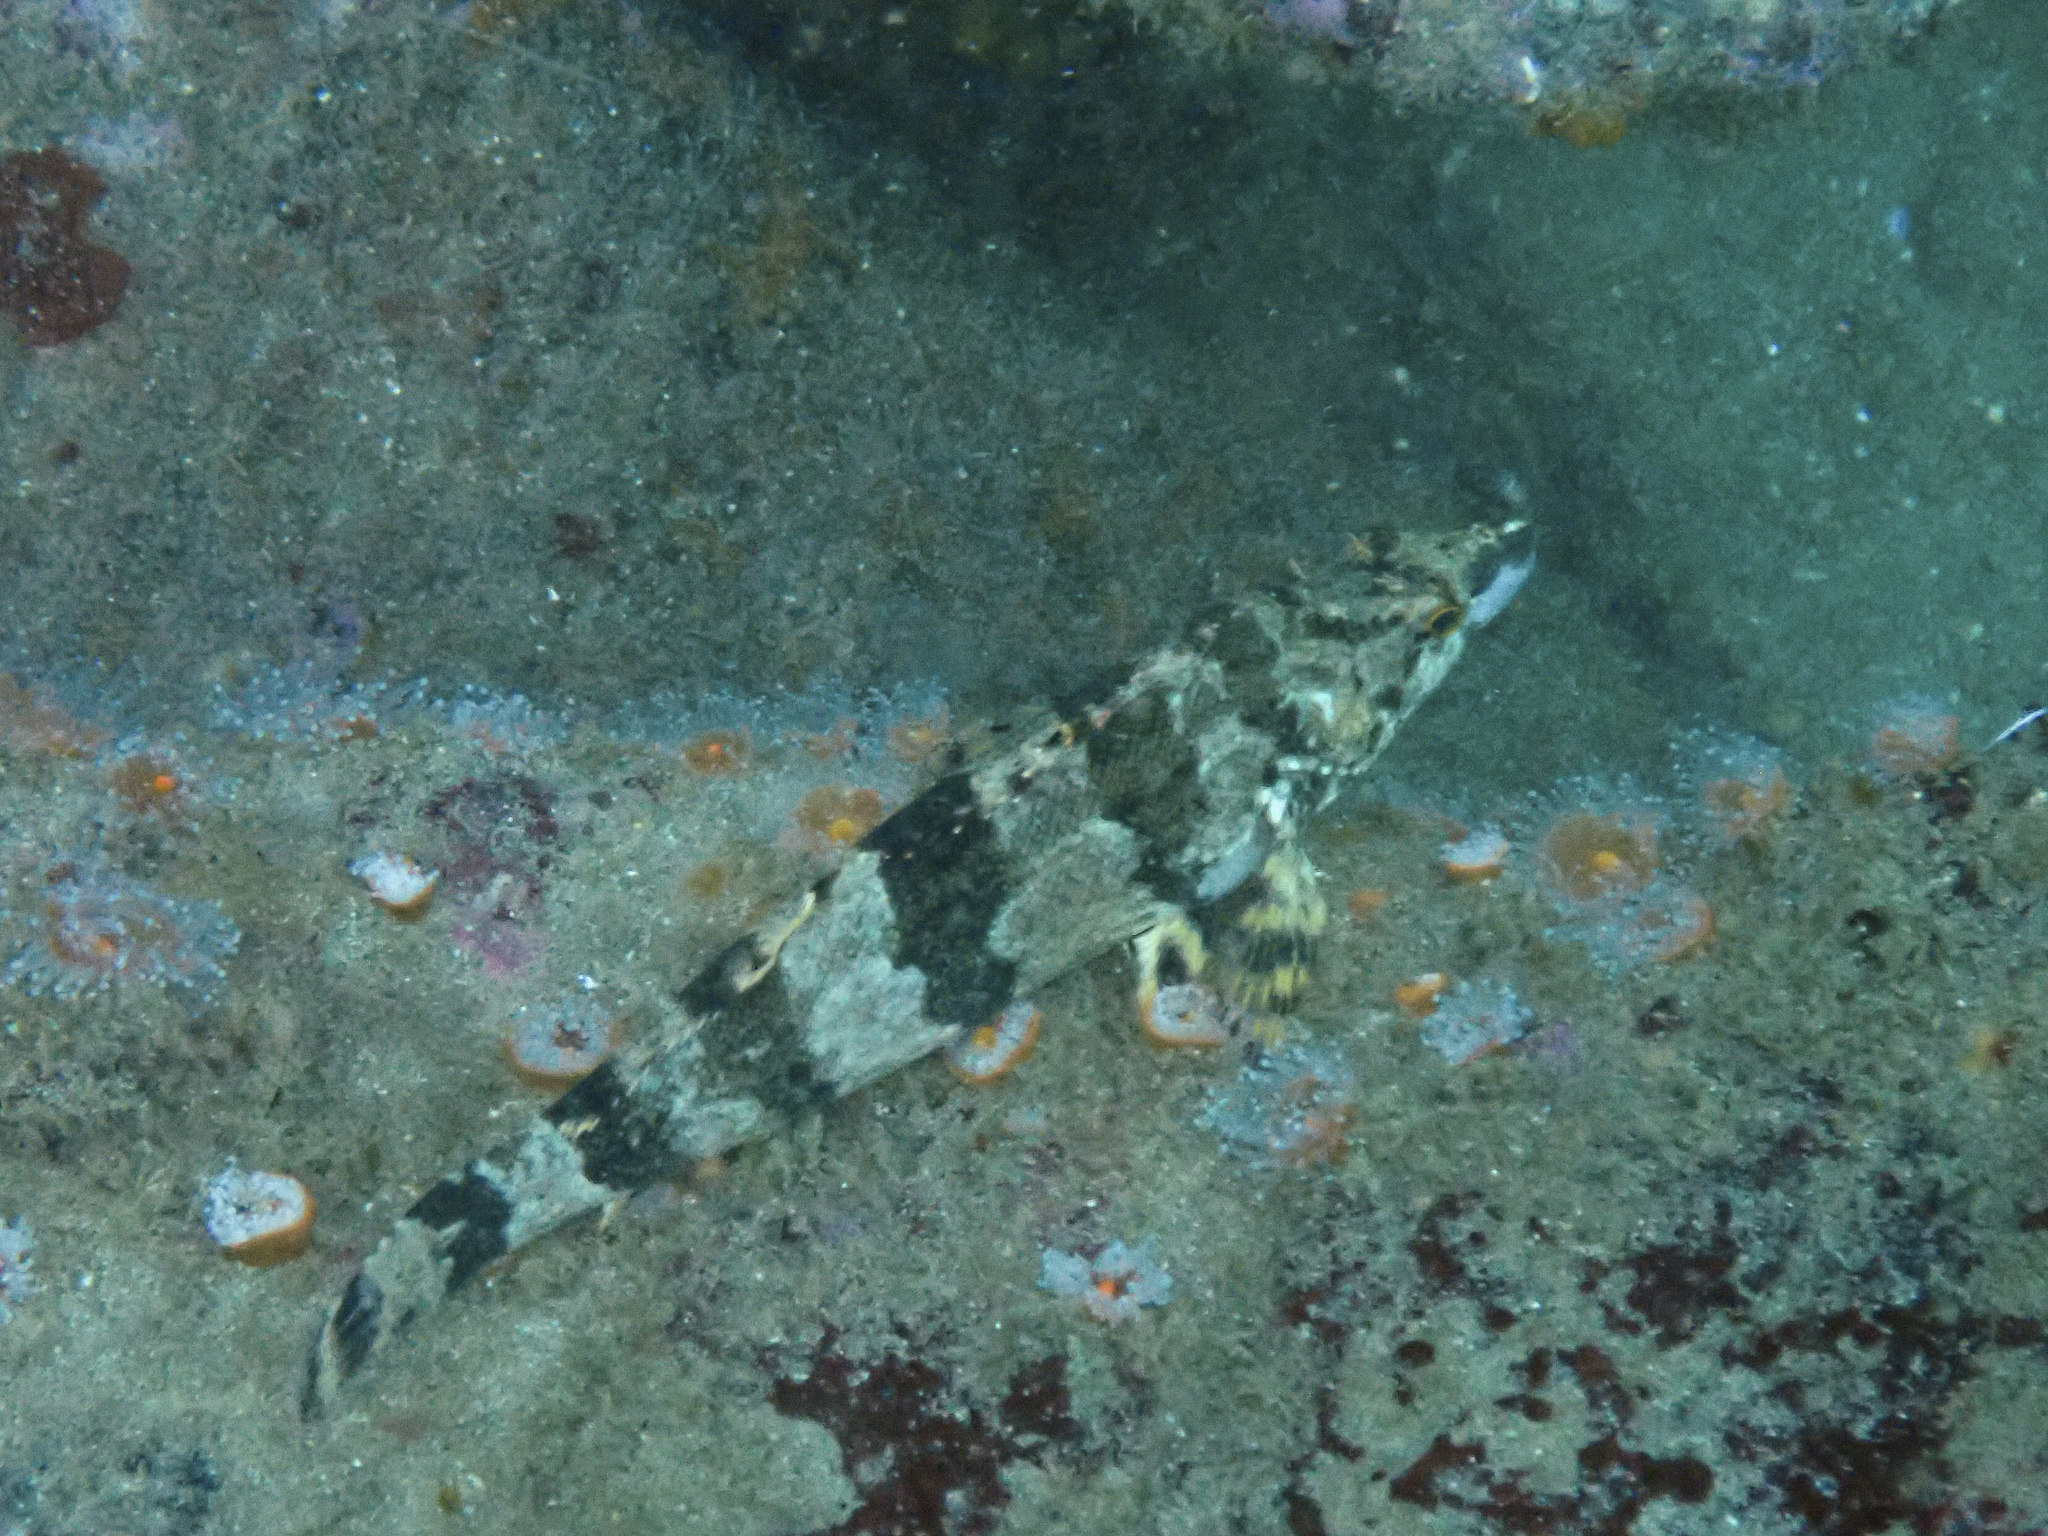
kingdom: Animalia
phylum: Chordata
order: Scorpaeniformes
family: Hexagrammidae
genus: Oxylebius
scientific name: Oxylebius pictus
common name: Painted greenling
